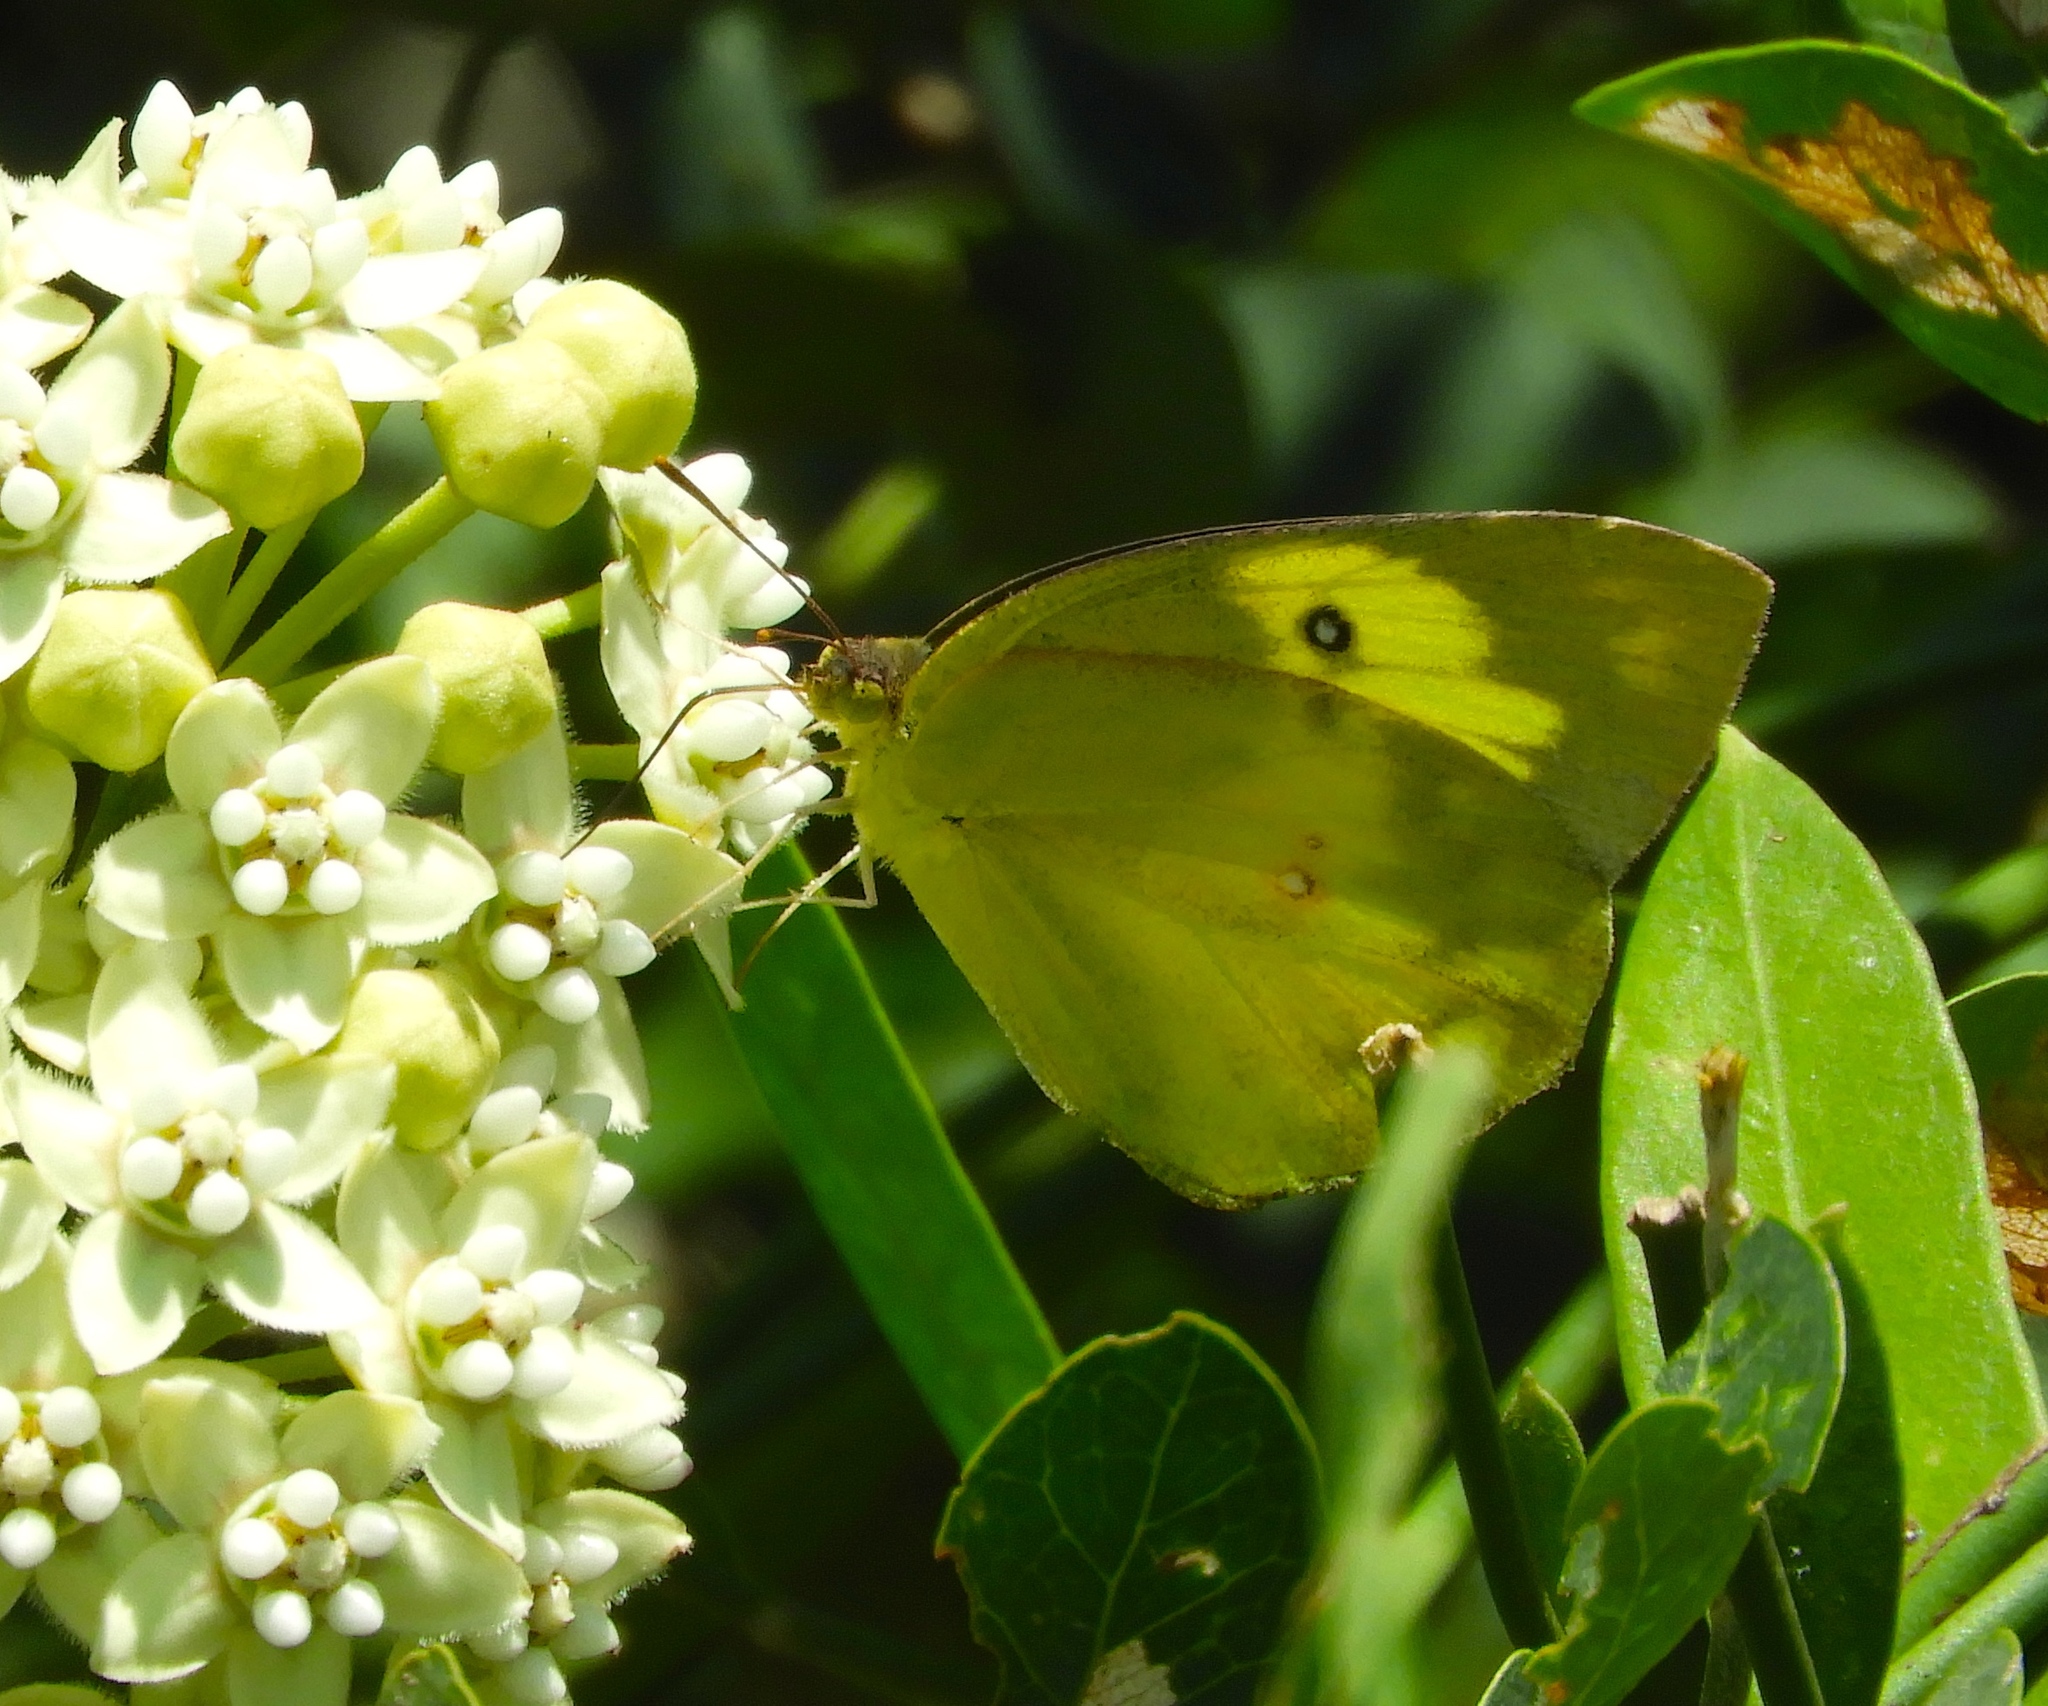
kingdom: Animalia
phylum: Arthropoda
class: Insecta
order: Lepidoptera
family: Pieridae
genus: Zerene
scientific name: Zerene cesonia
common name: Southern dogface
